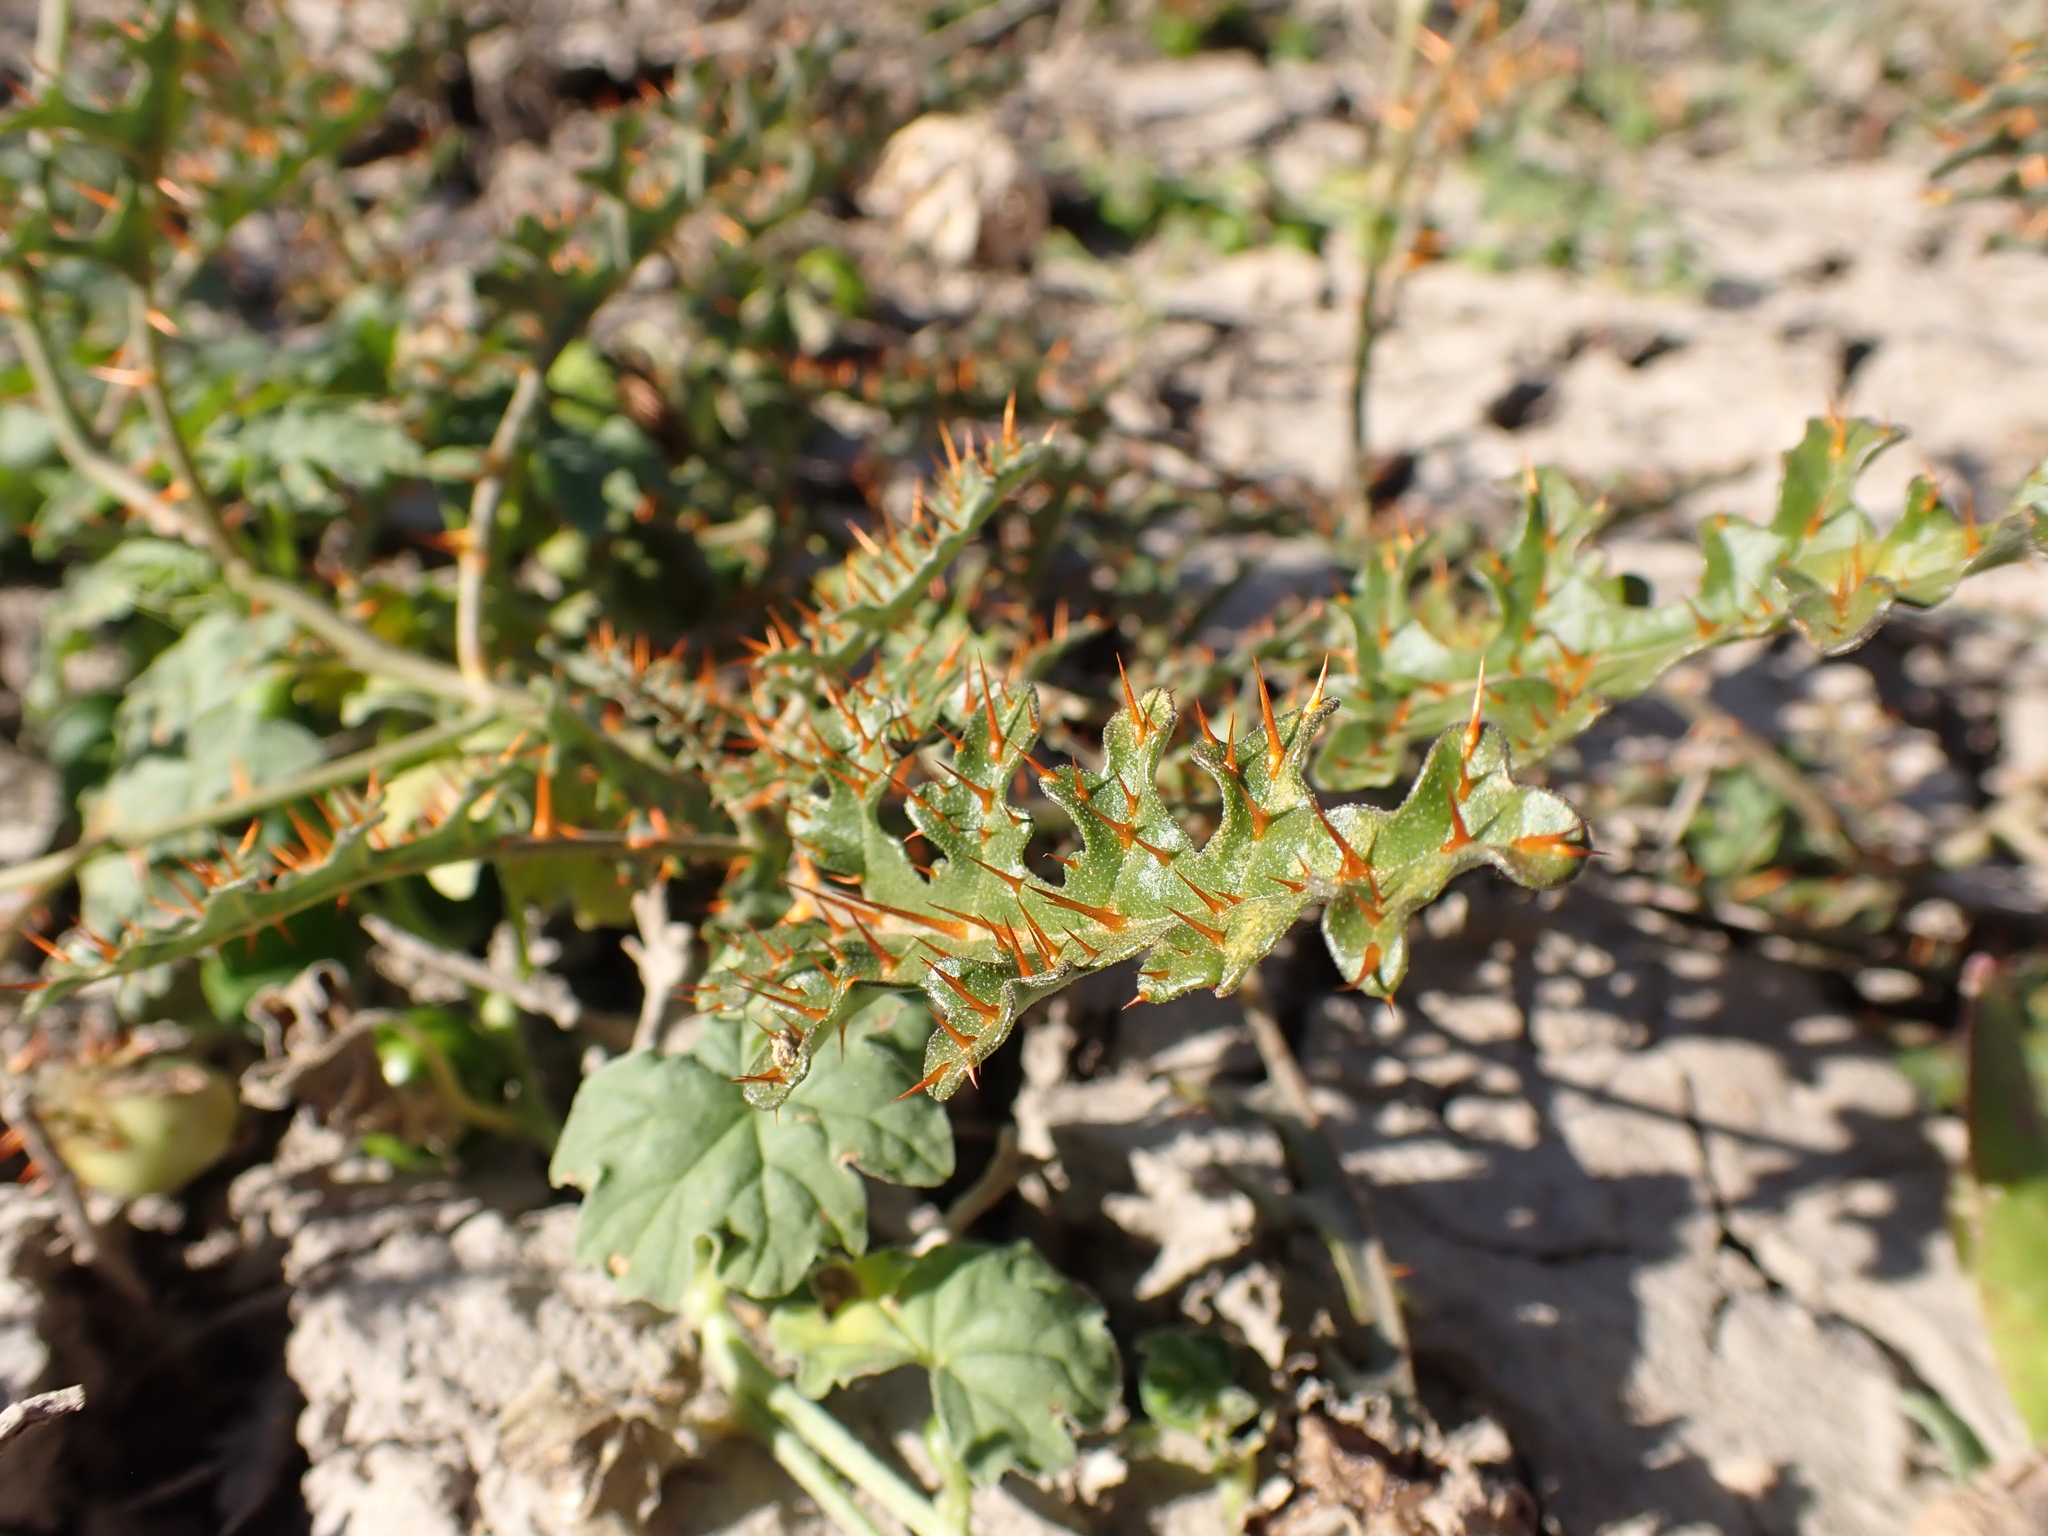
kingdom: Plantae
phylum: Tracheophyta
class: Magnoliopsida
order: Solanales
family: Solanaceae
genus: Solanum
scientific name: Solanum lacunarium
